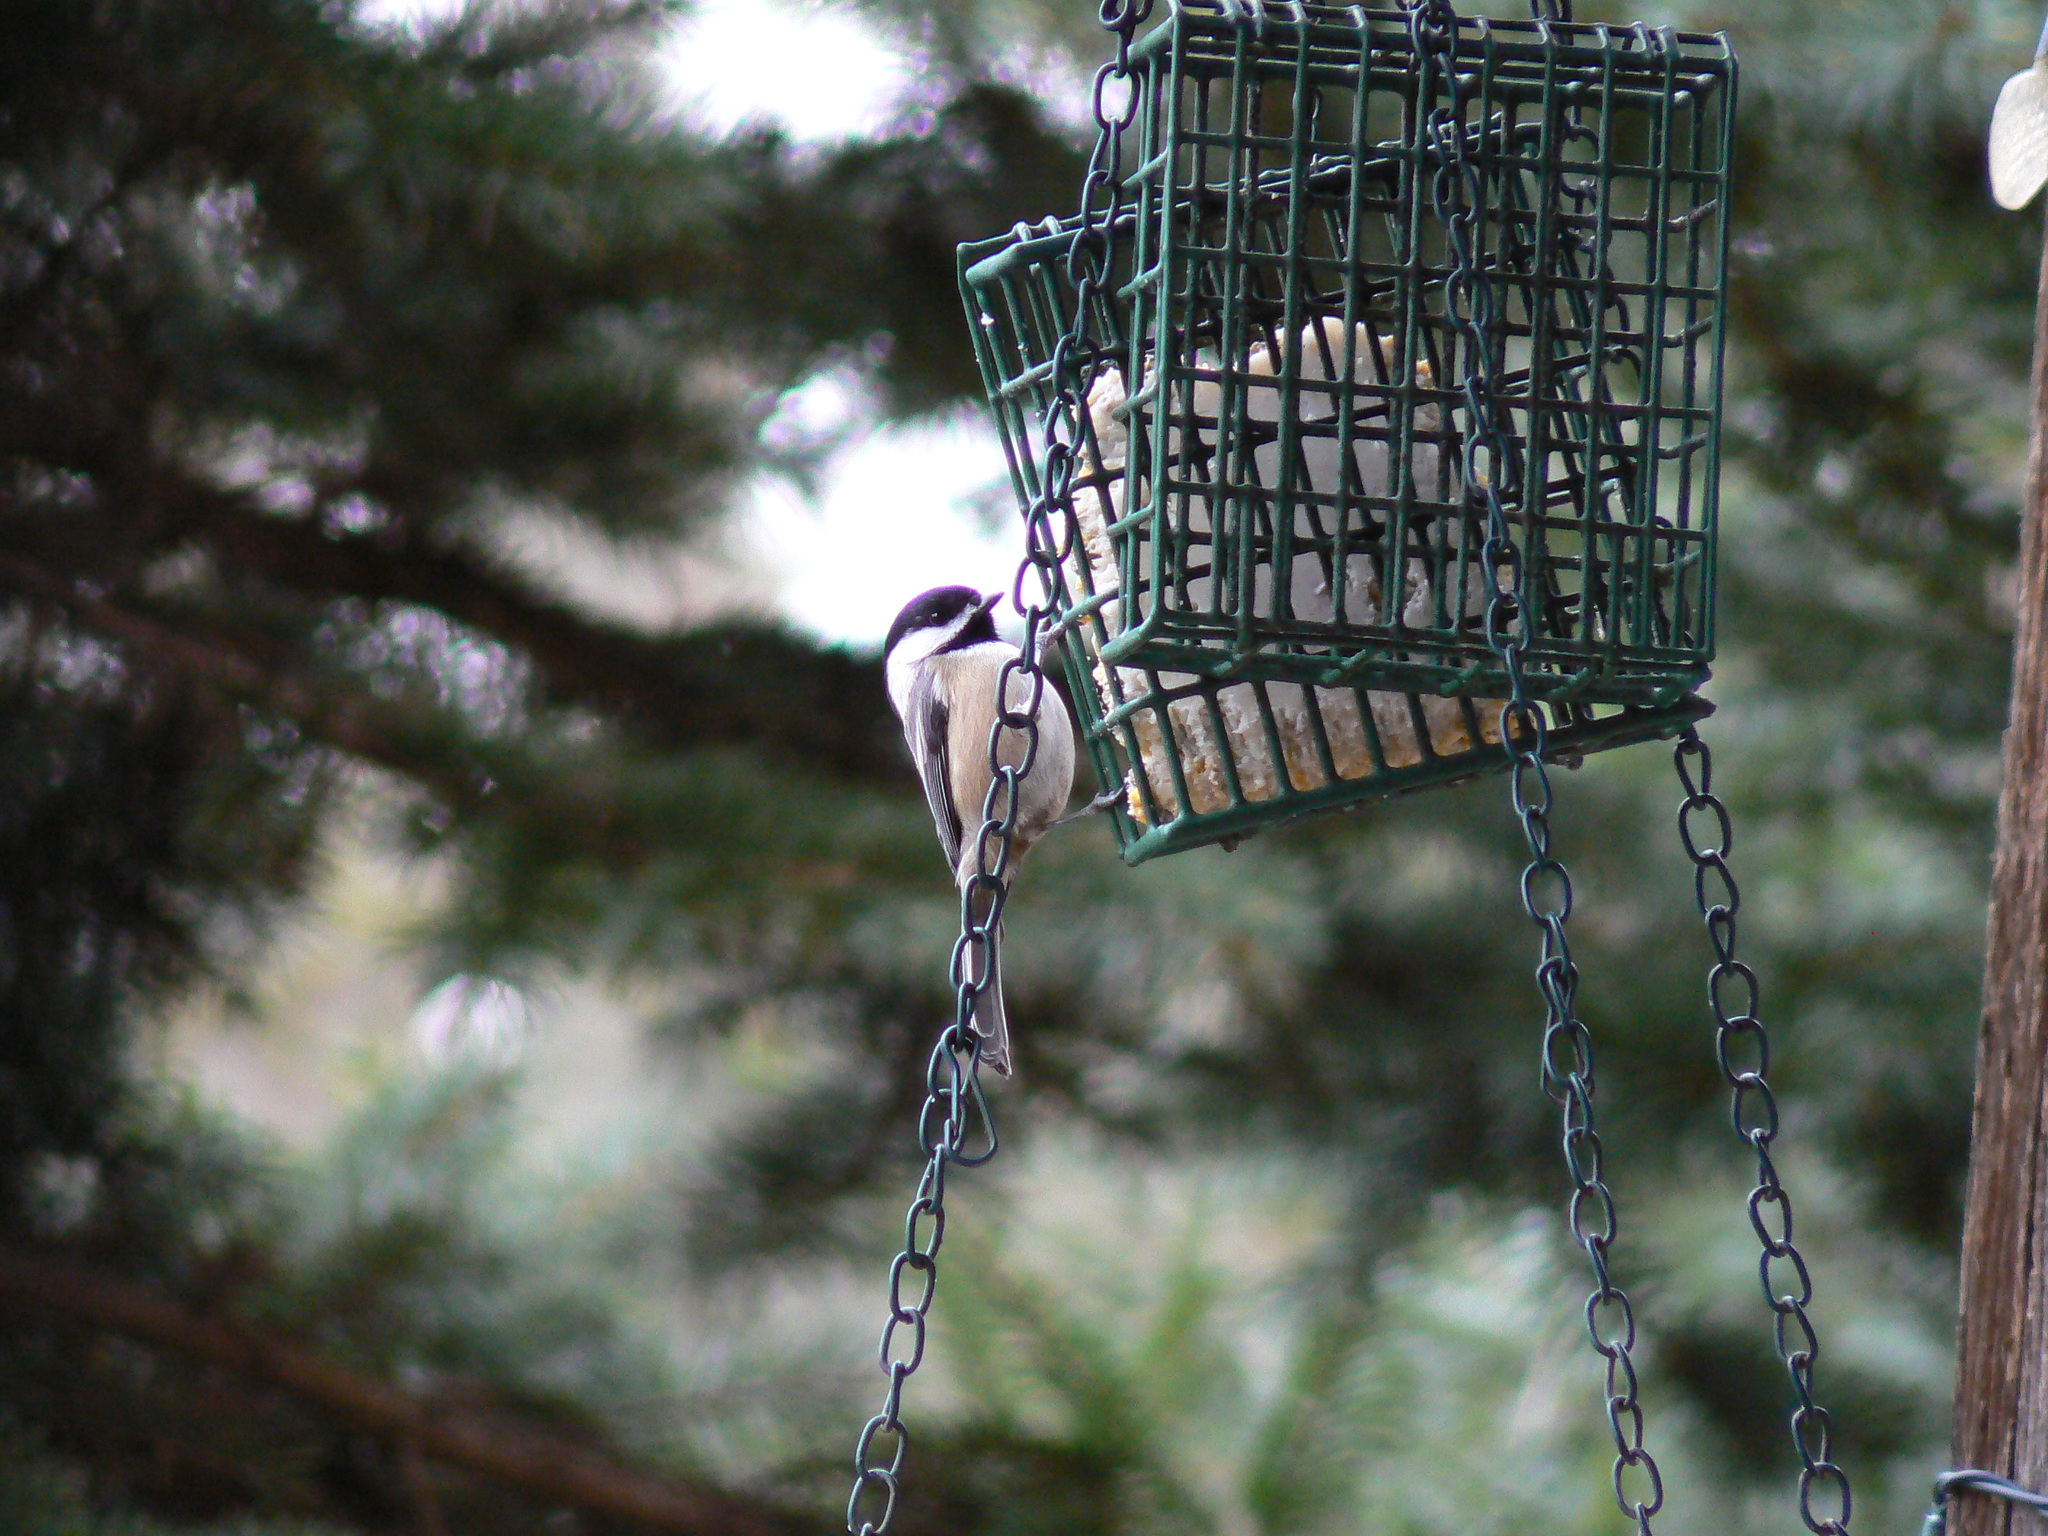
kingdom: Animalia
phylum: Chordata
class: Aves
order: Passeriformes
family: Paridae
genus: Poecile
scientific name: Poecile atricapillus
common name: Black-capped chickadee
